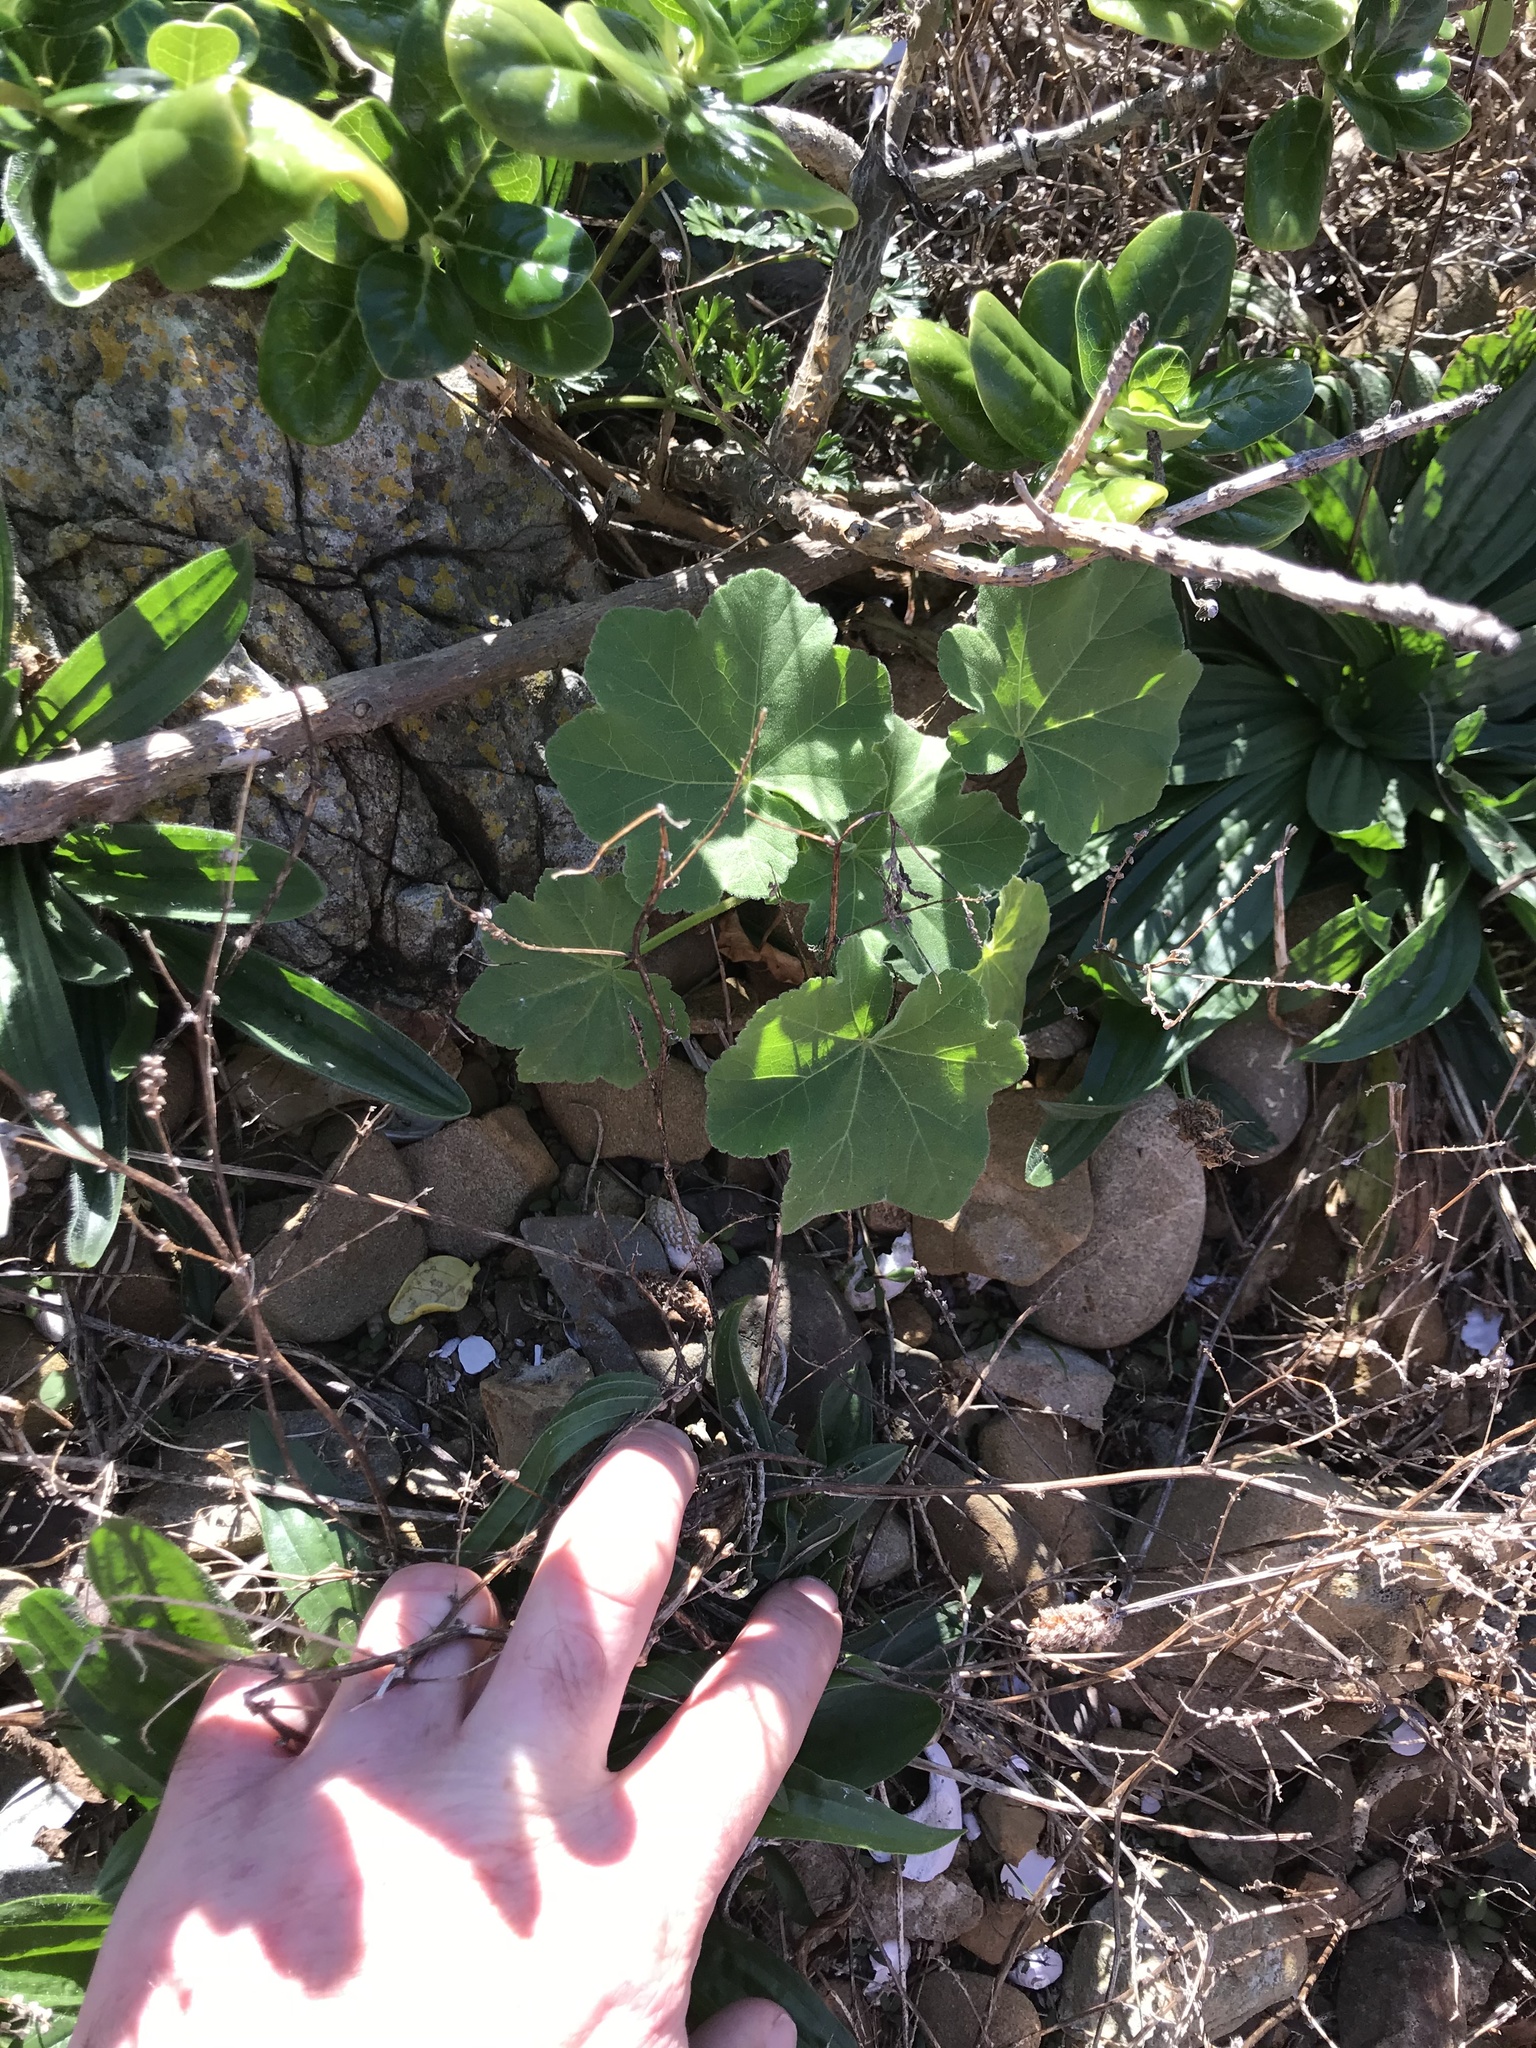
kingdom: Plantae
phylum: Tracheophyta
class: Magnoliopsida
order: Malvales
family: Malvaceae
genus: Malva
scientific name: Malva arborea
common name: Tree mallow
